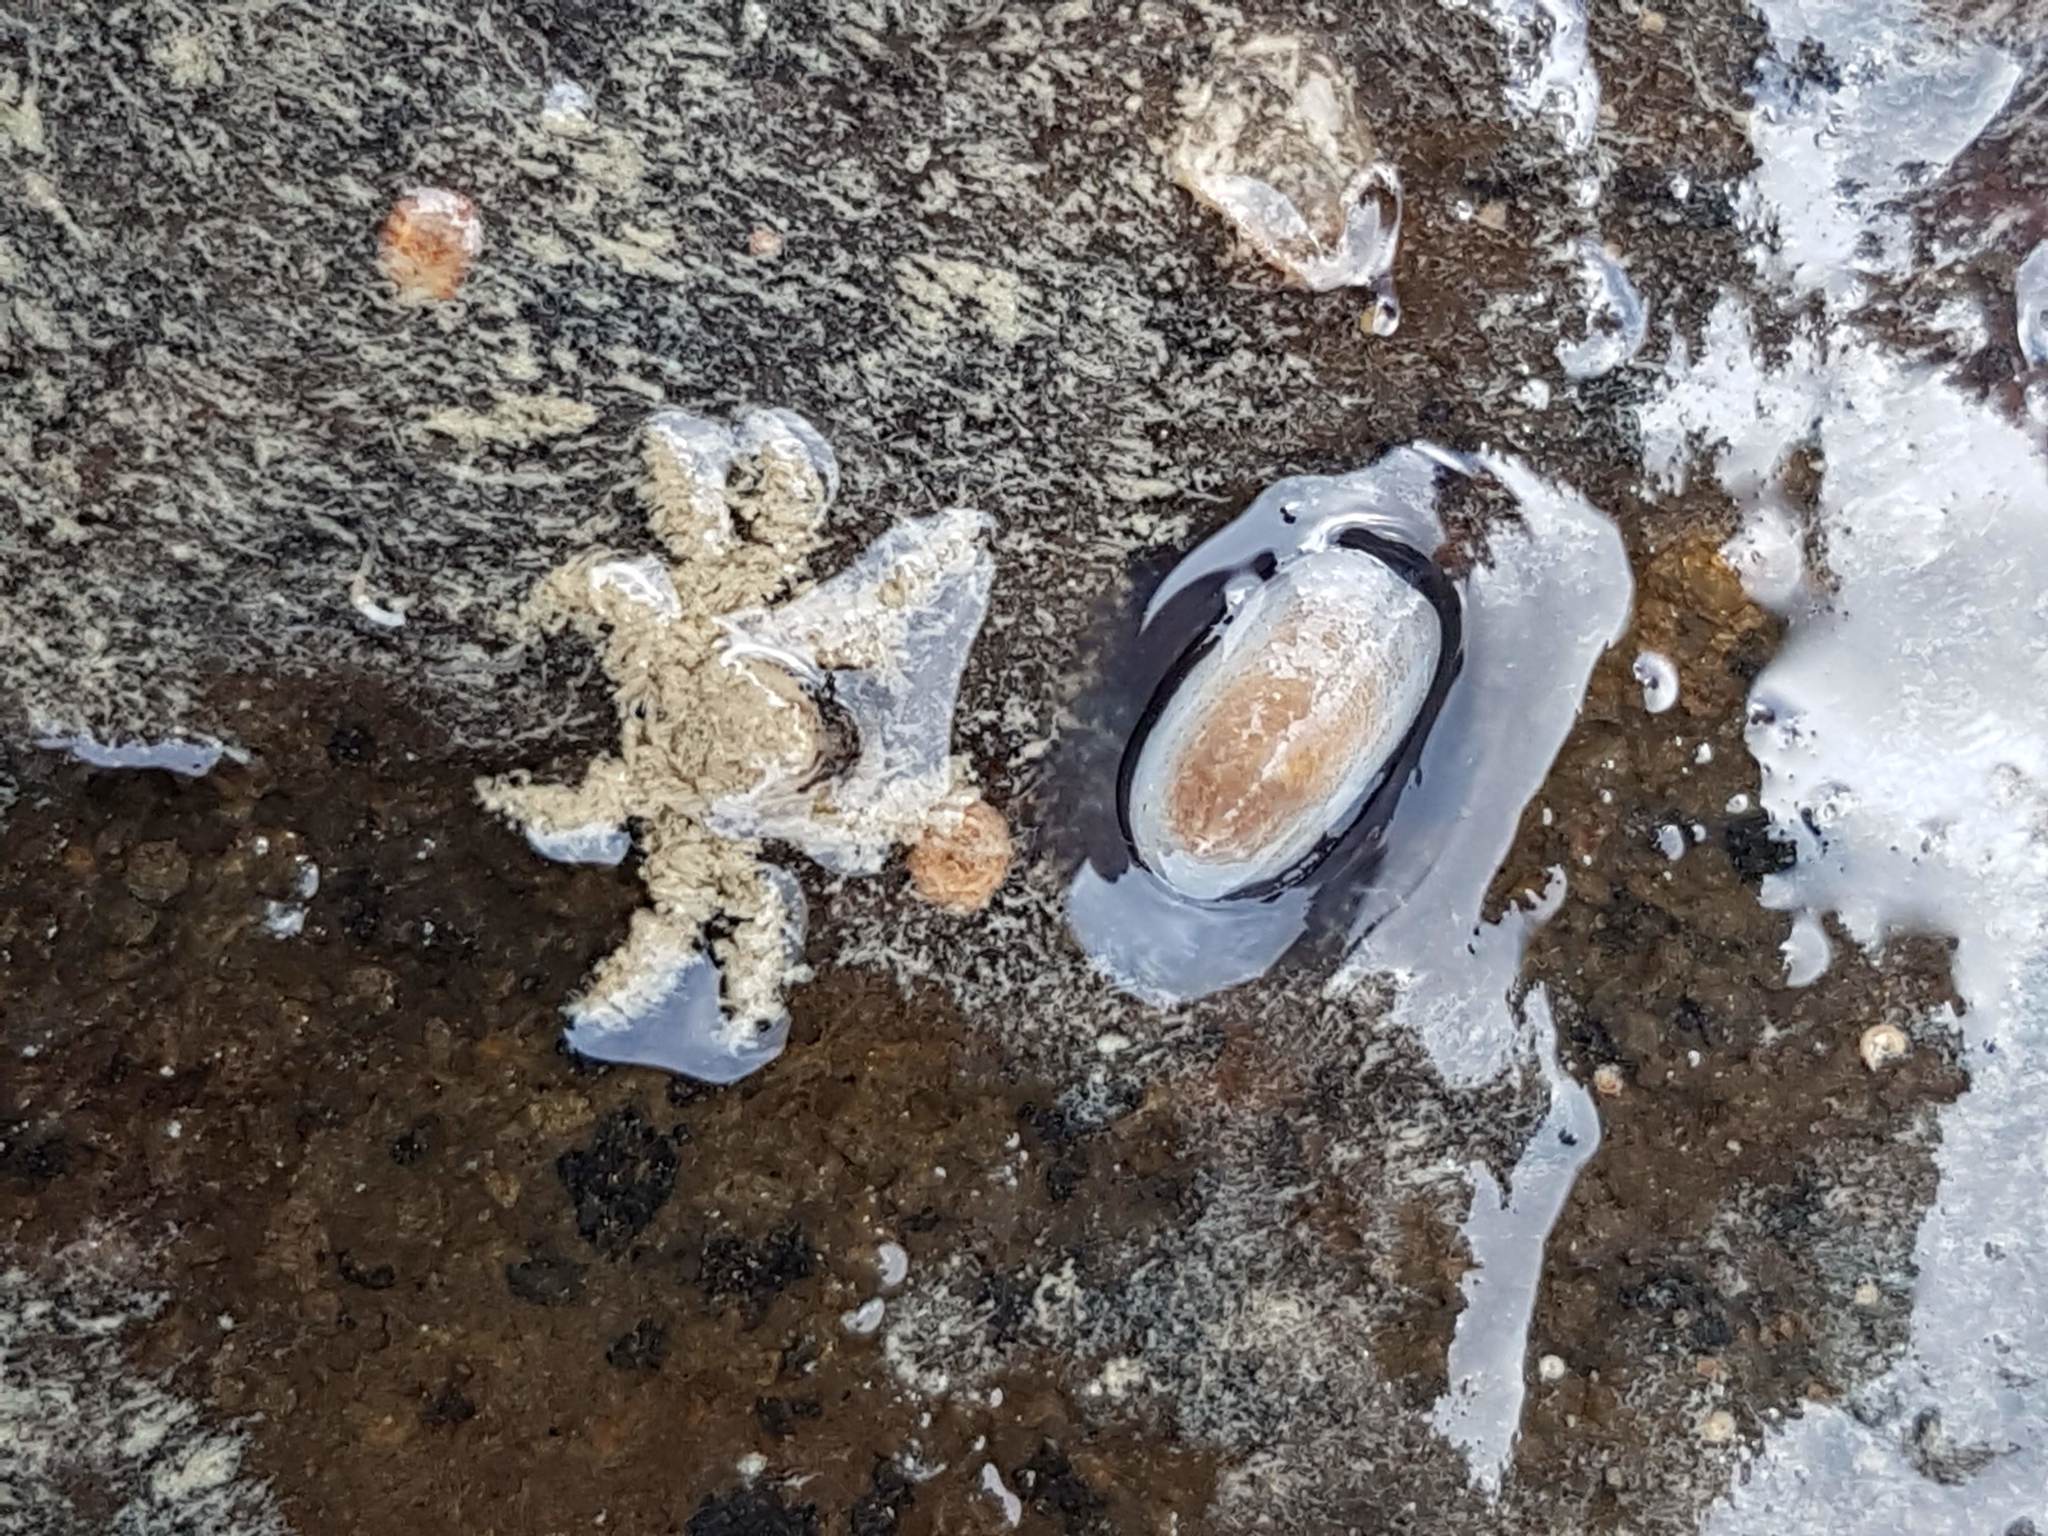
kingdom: Animalia
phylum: Arthropoda
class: Malacostraca
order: Decapoda
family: Hymenosomatidae
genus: Neohymenicus
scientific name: Neohymenicus pubescens
